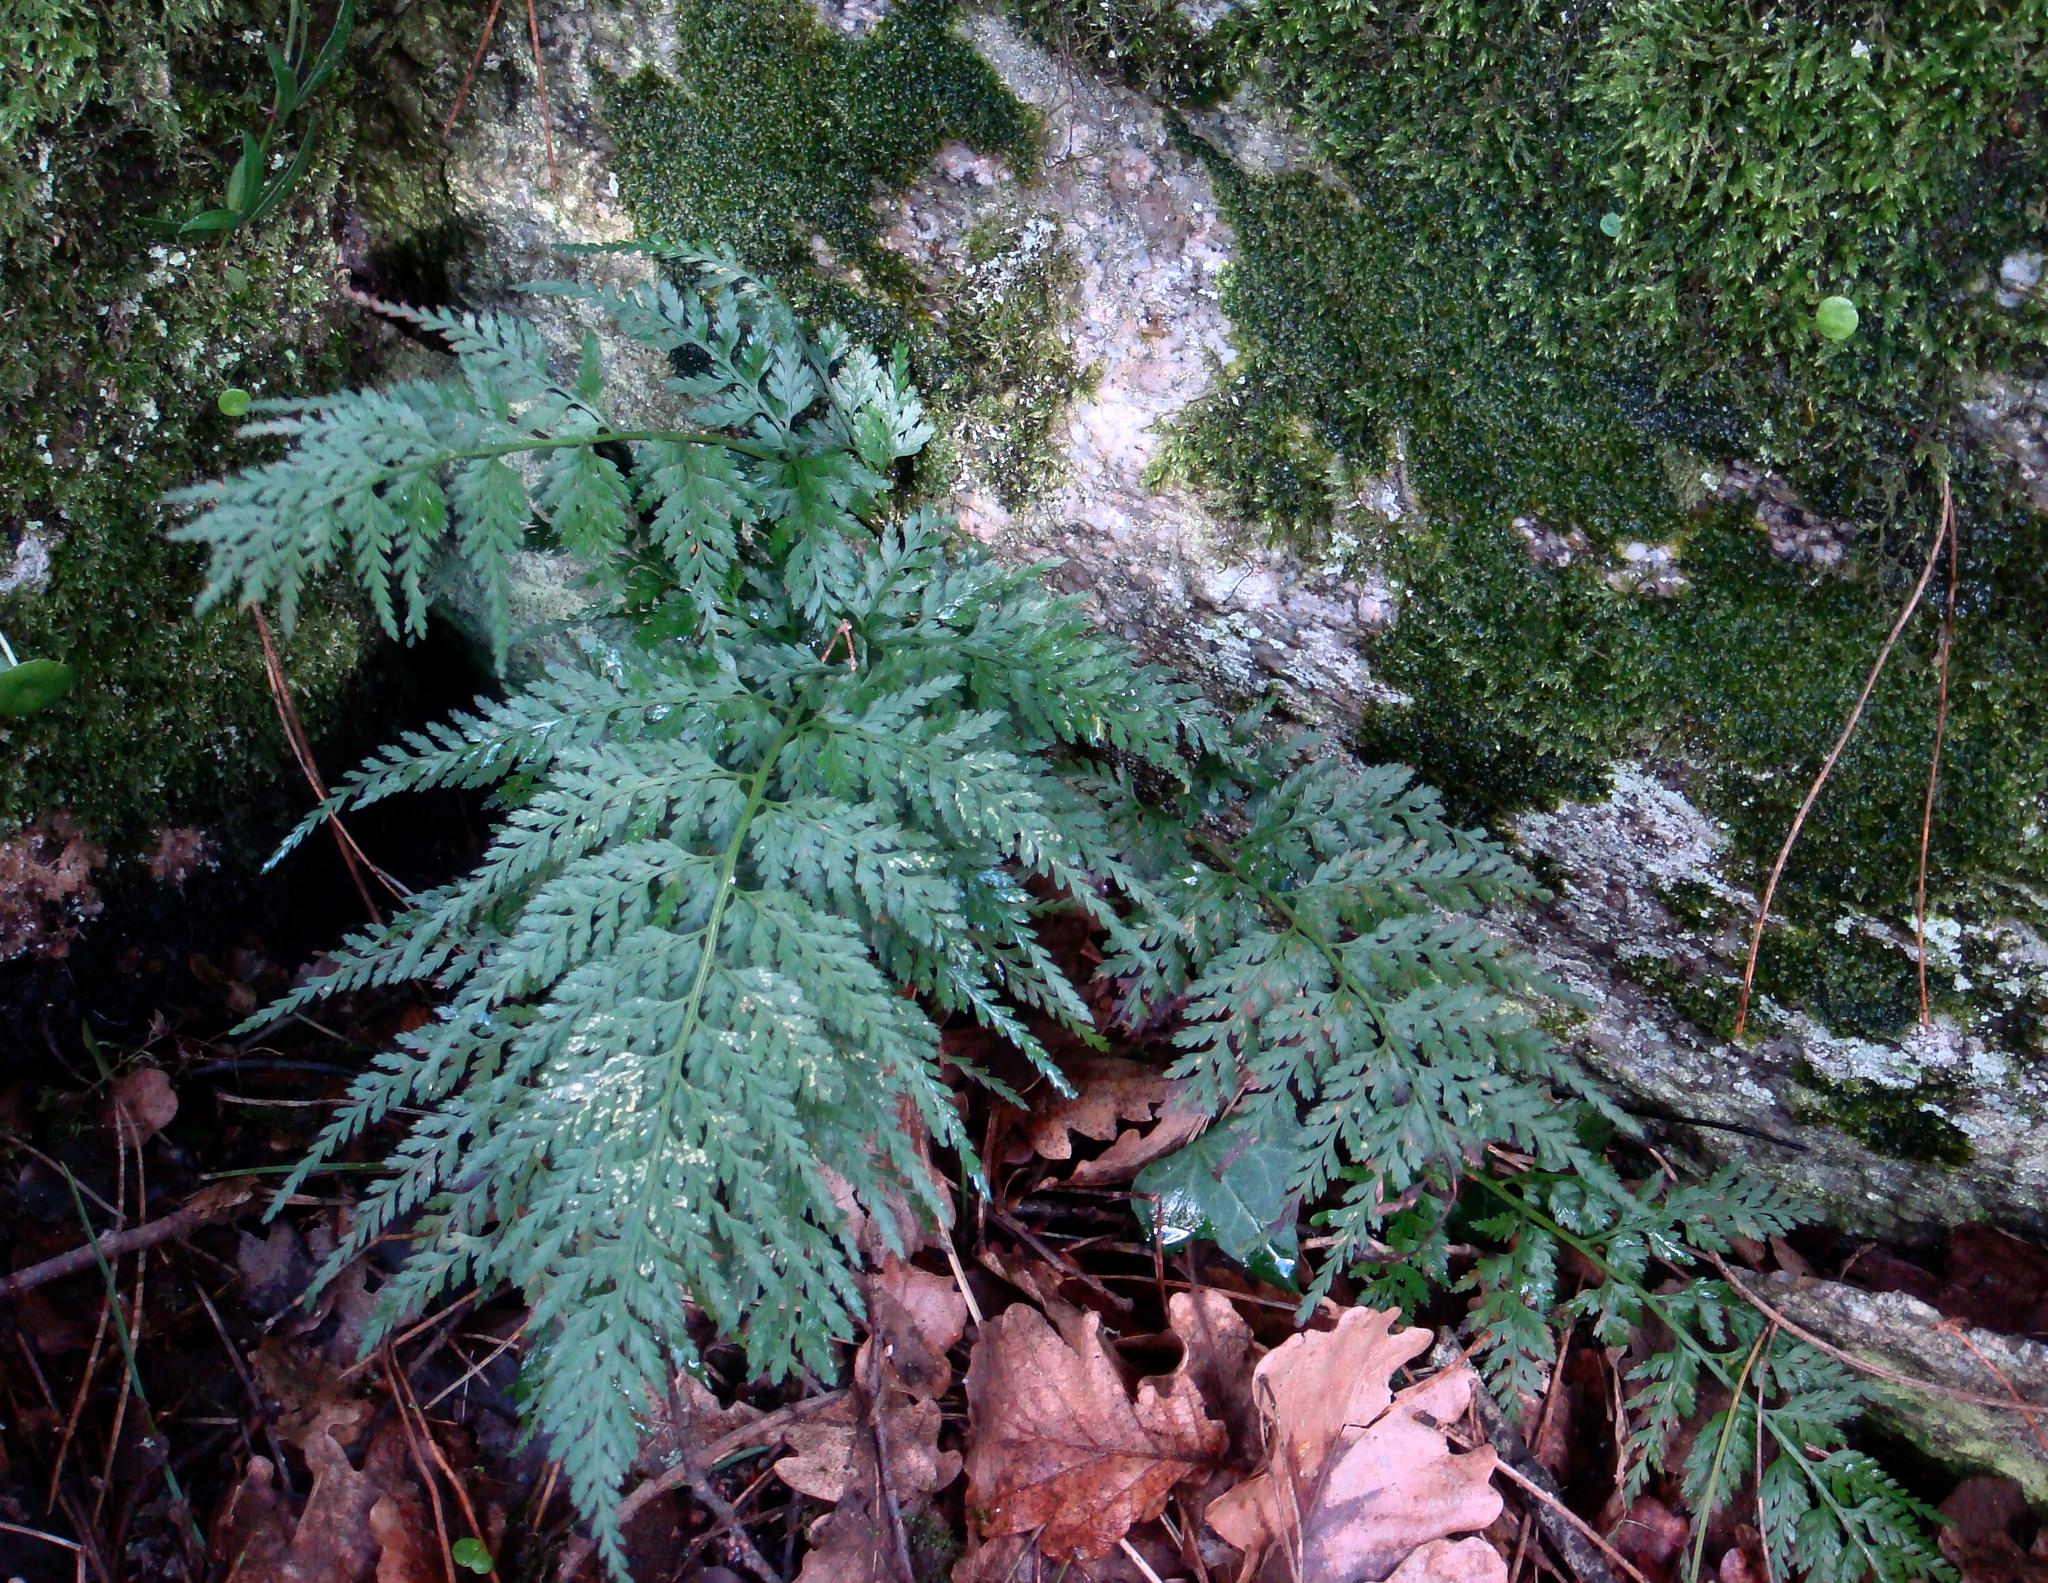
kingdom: Plantae
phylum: Tracheophyta
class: Polypodiopsida
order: Polypodiales
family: Aspleniaceae
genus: Asplenium
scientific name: Asplenium onopteris
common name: Irish spleenwort
